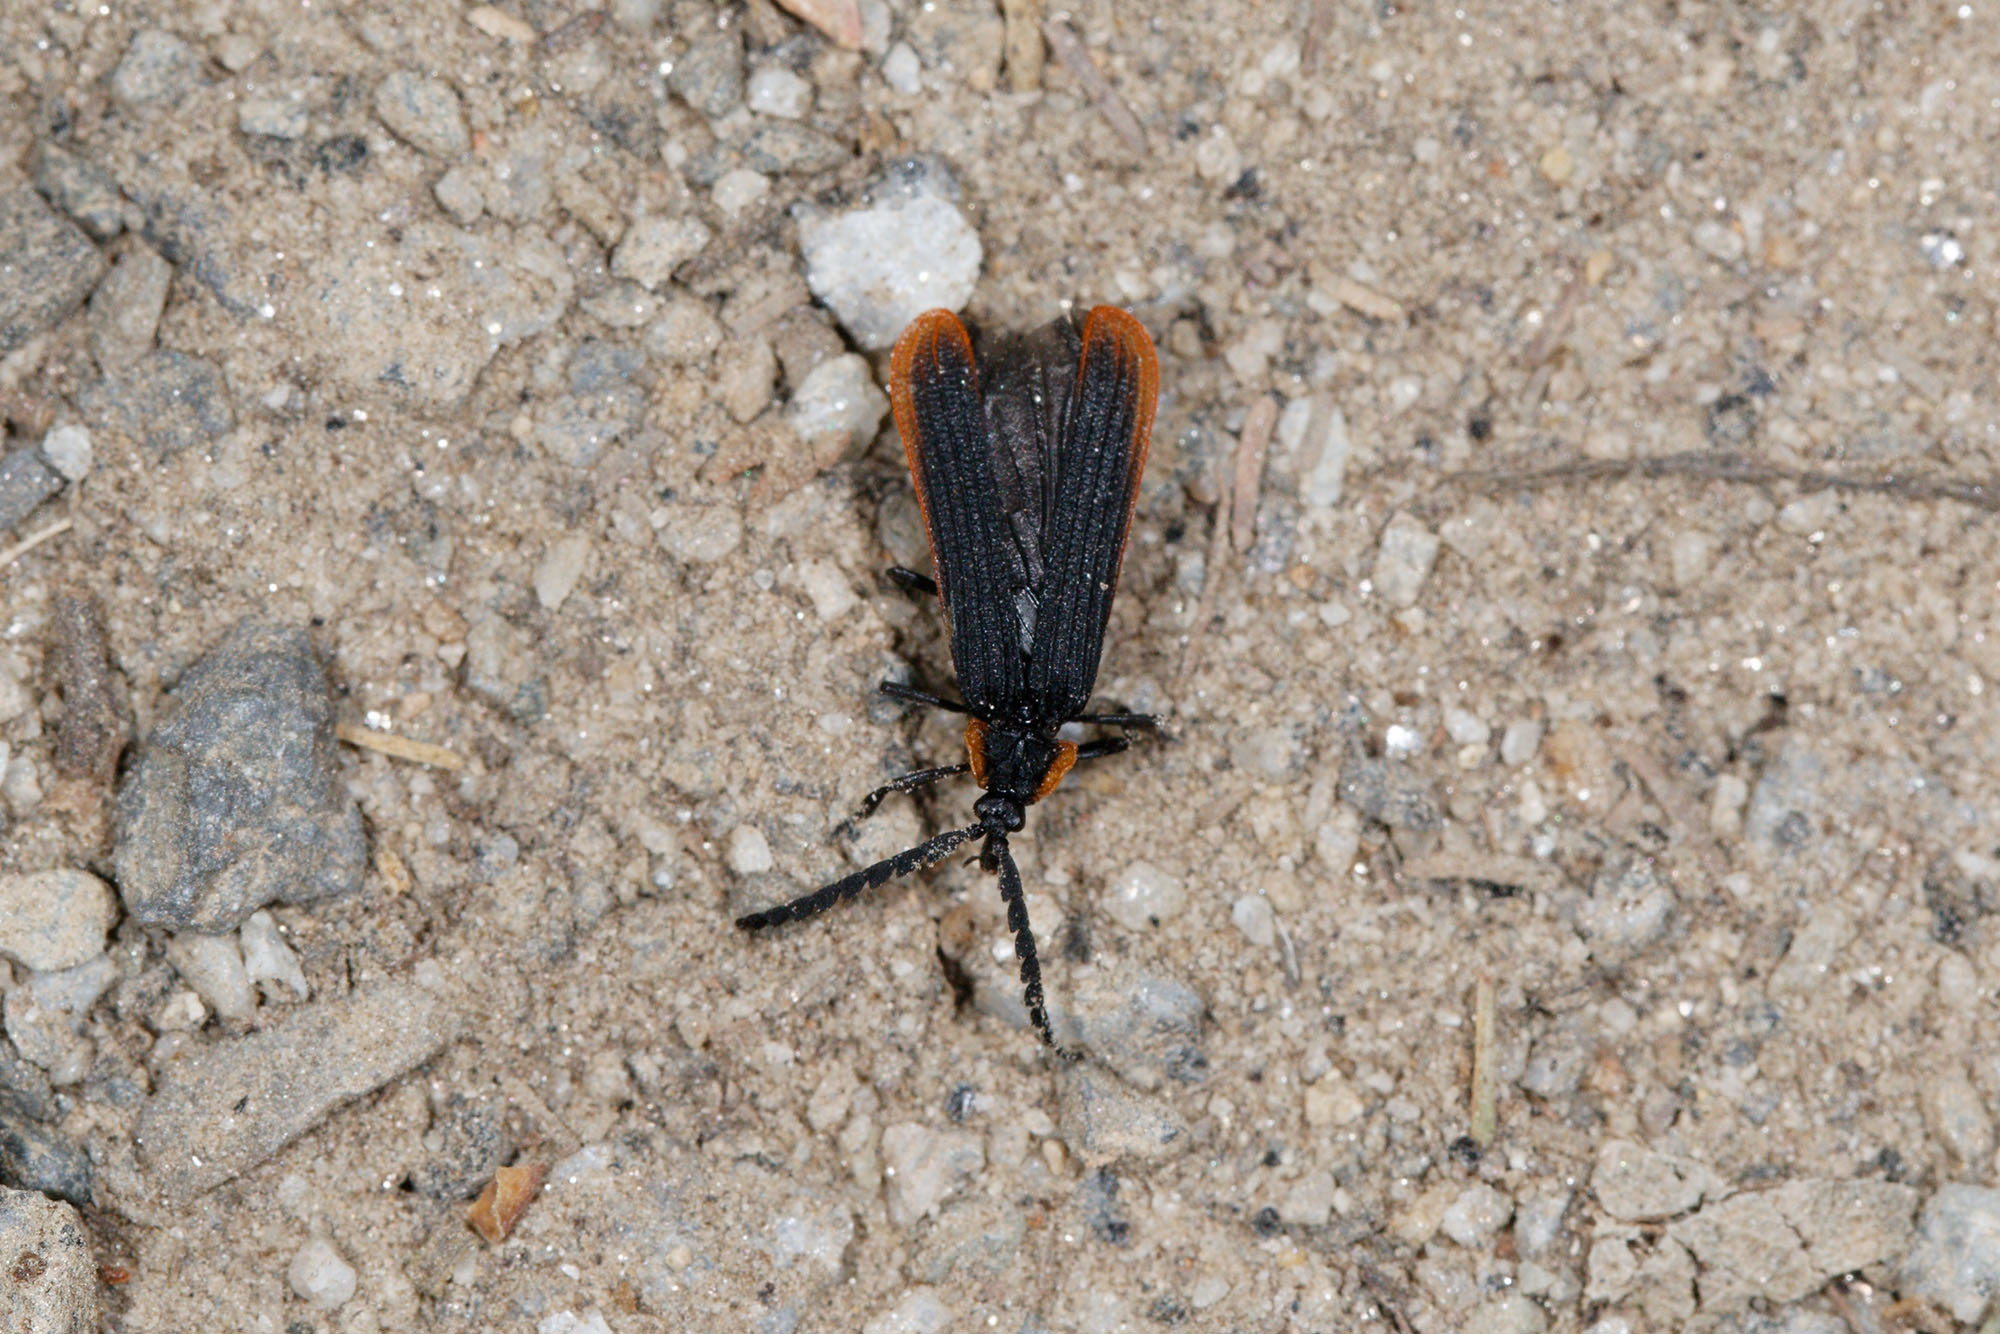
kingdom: Animalia
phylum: Arthropoda
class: Insecta
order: Coleoptera
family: Lycidae
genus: Porrostoma
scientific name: Porrostoma
